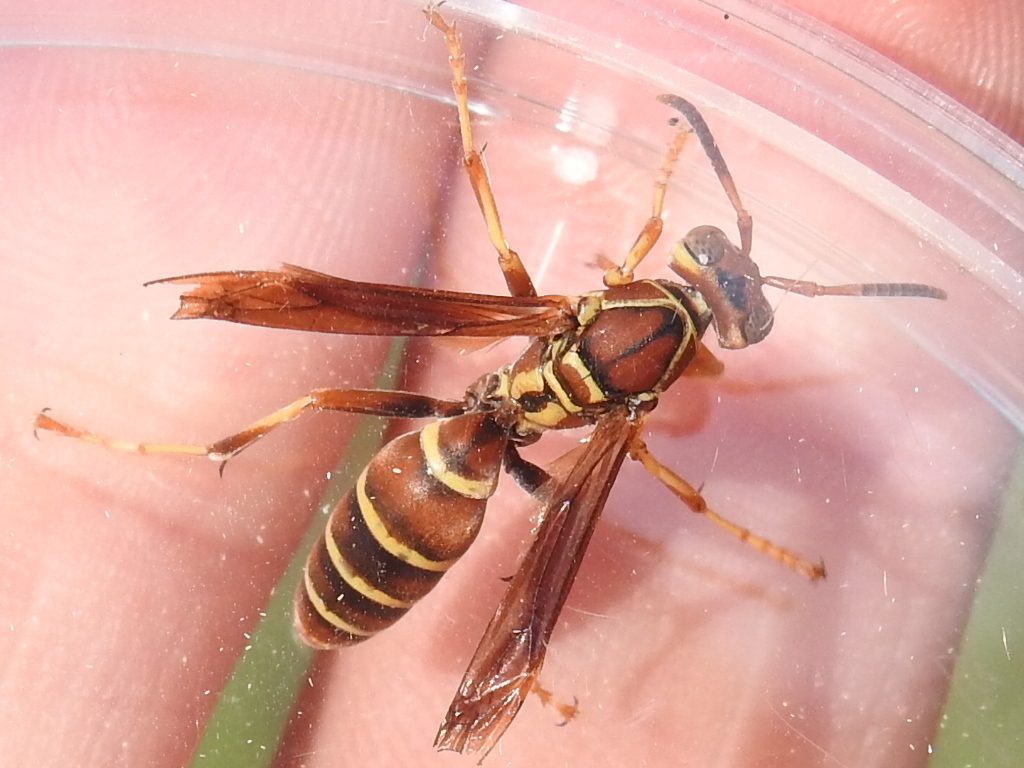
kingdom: Animalia
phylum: Arthropoda
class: Insecta
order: Hymenoptera
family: Eumenidae
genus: Polistes
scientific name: Polistes dorsalis
